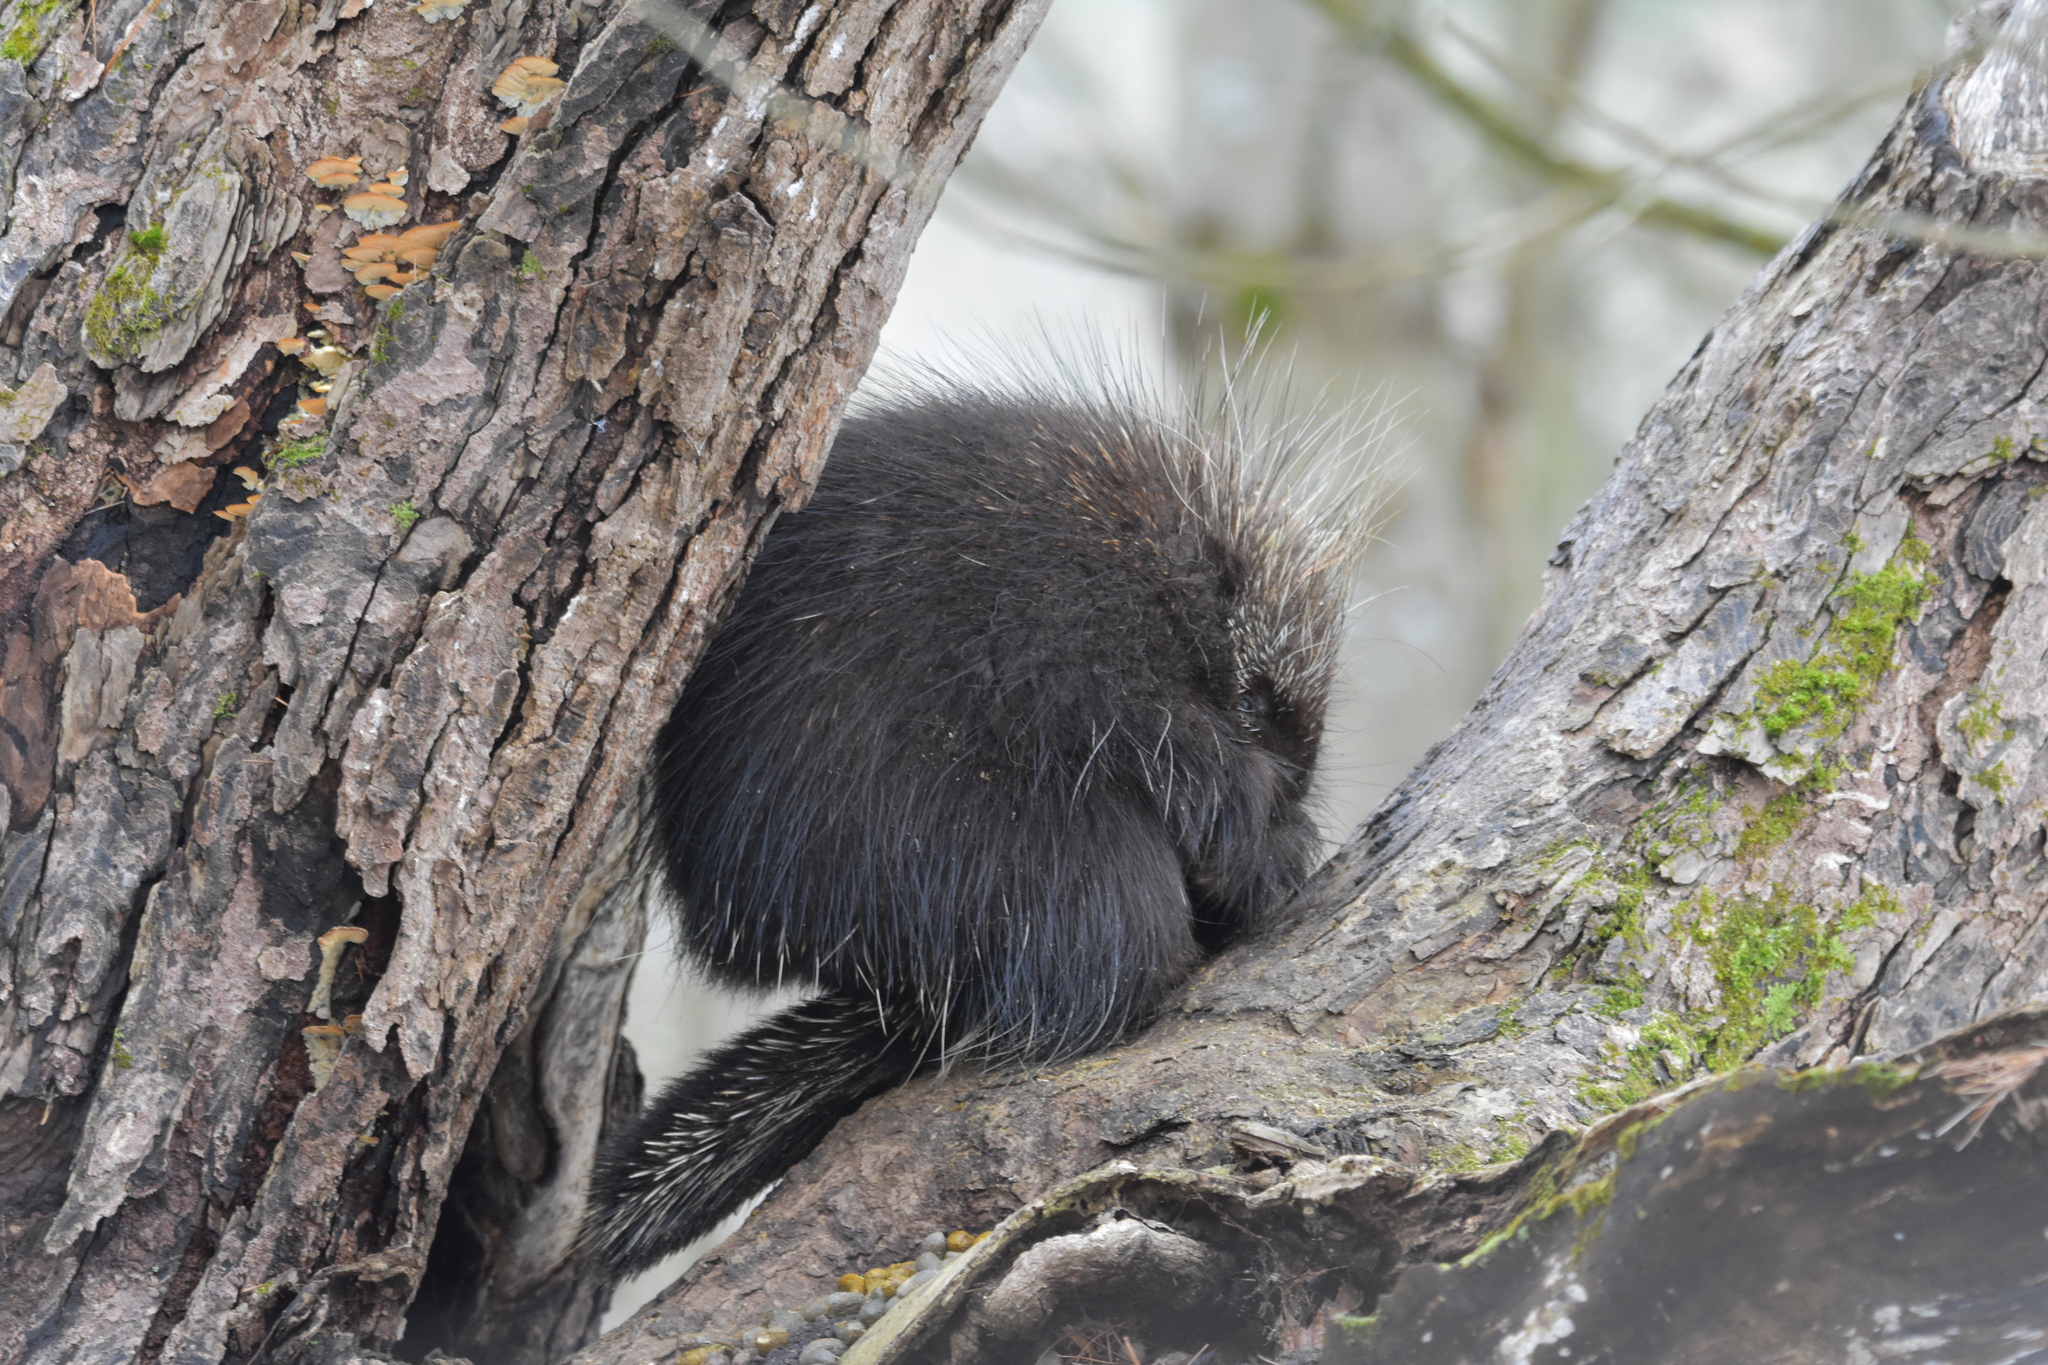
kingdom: Animalia
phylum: Chordata
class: Mammalia
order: Rodentia
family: Erethizontidae
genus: Erethizon
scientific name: Erethizon dorsatus
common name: North american porcupine
